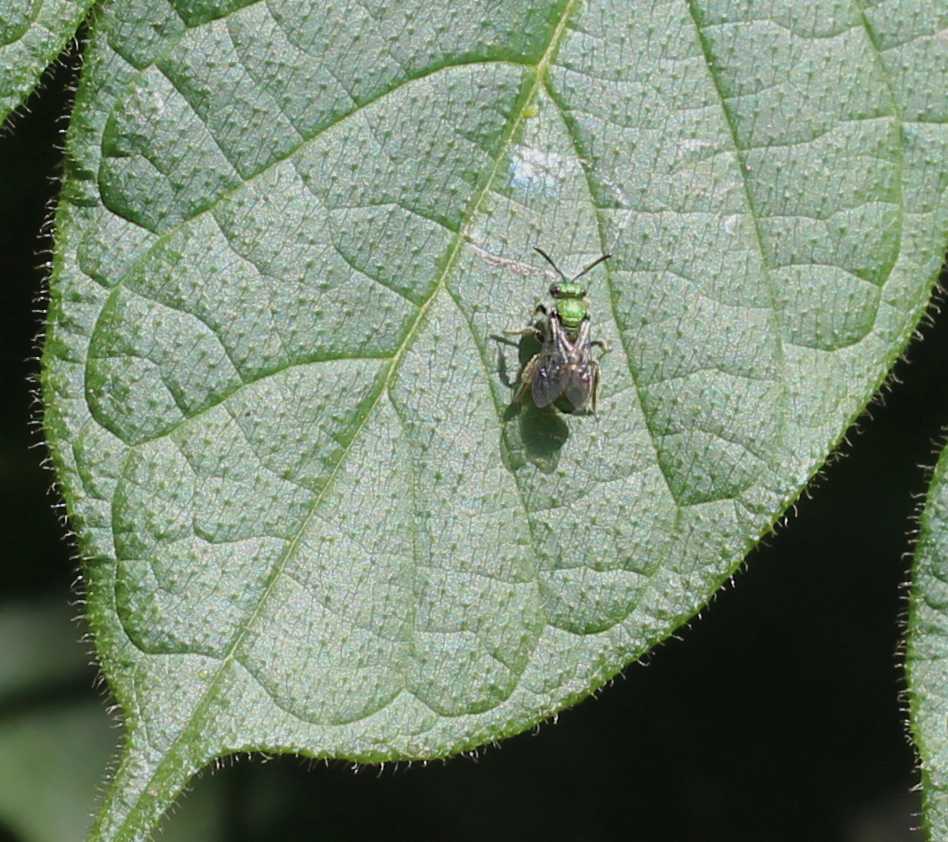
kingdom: Animalia
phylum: Arthropoda
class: Insecta
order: Hymenoptera
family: Halictidae
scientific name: Halictidae
